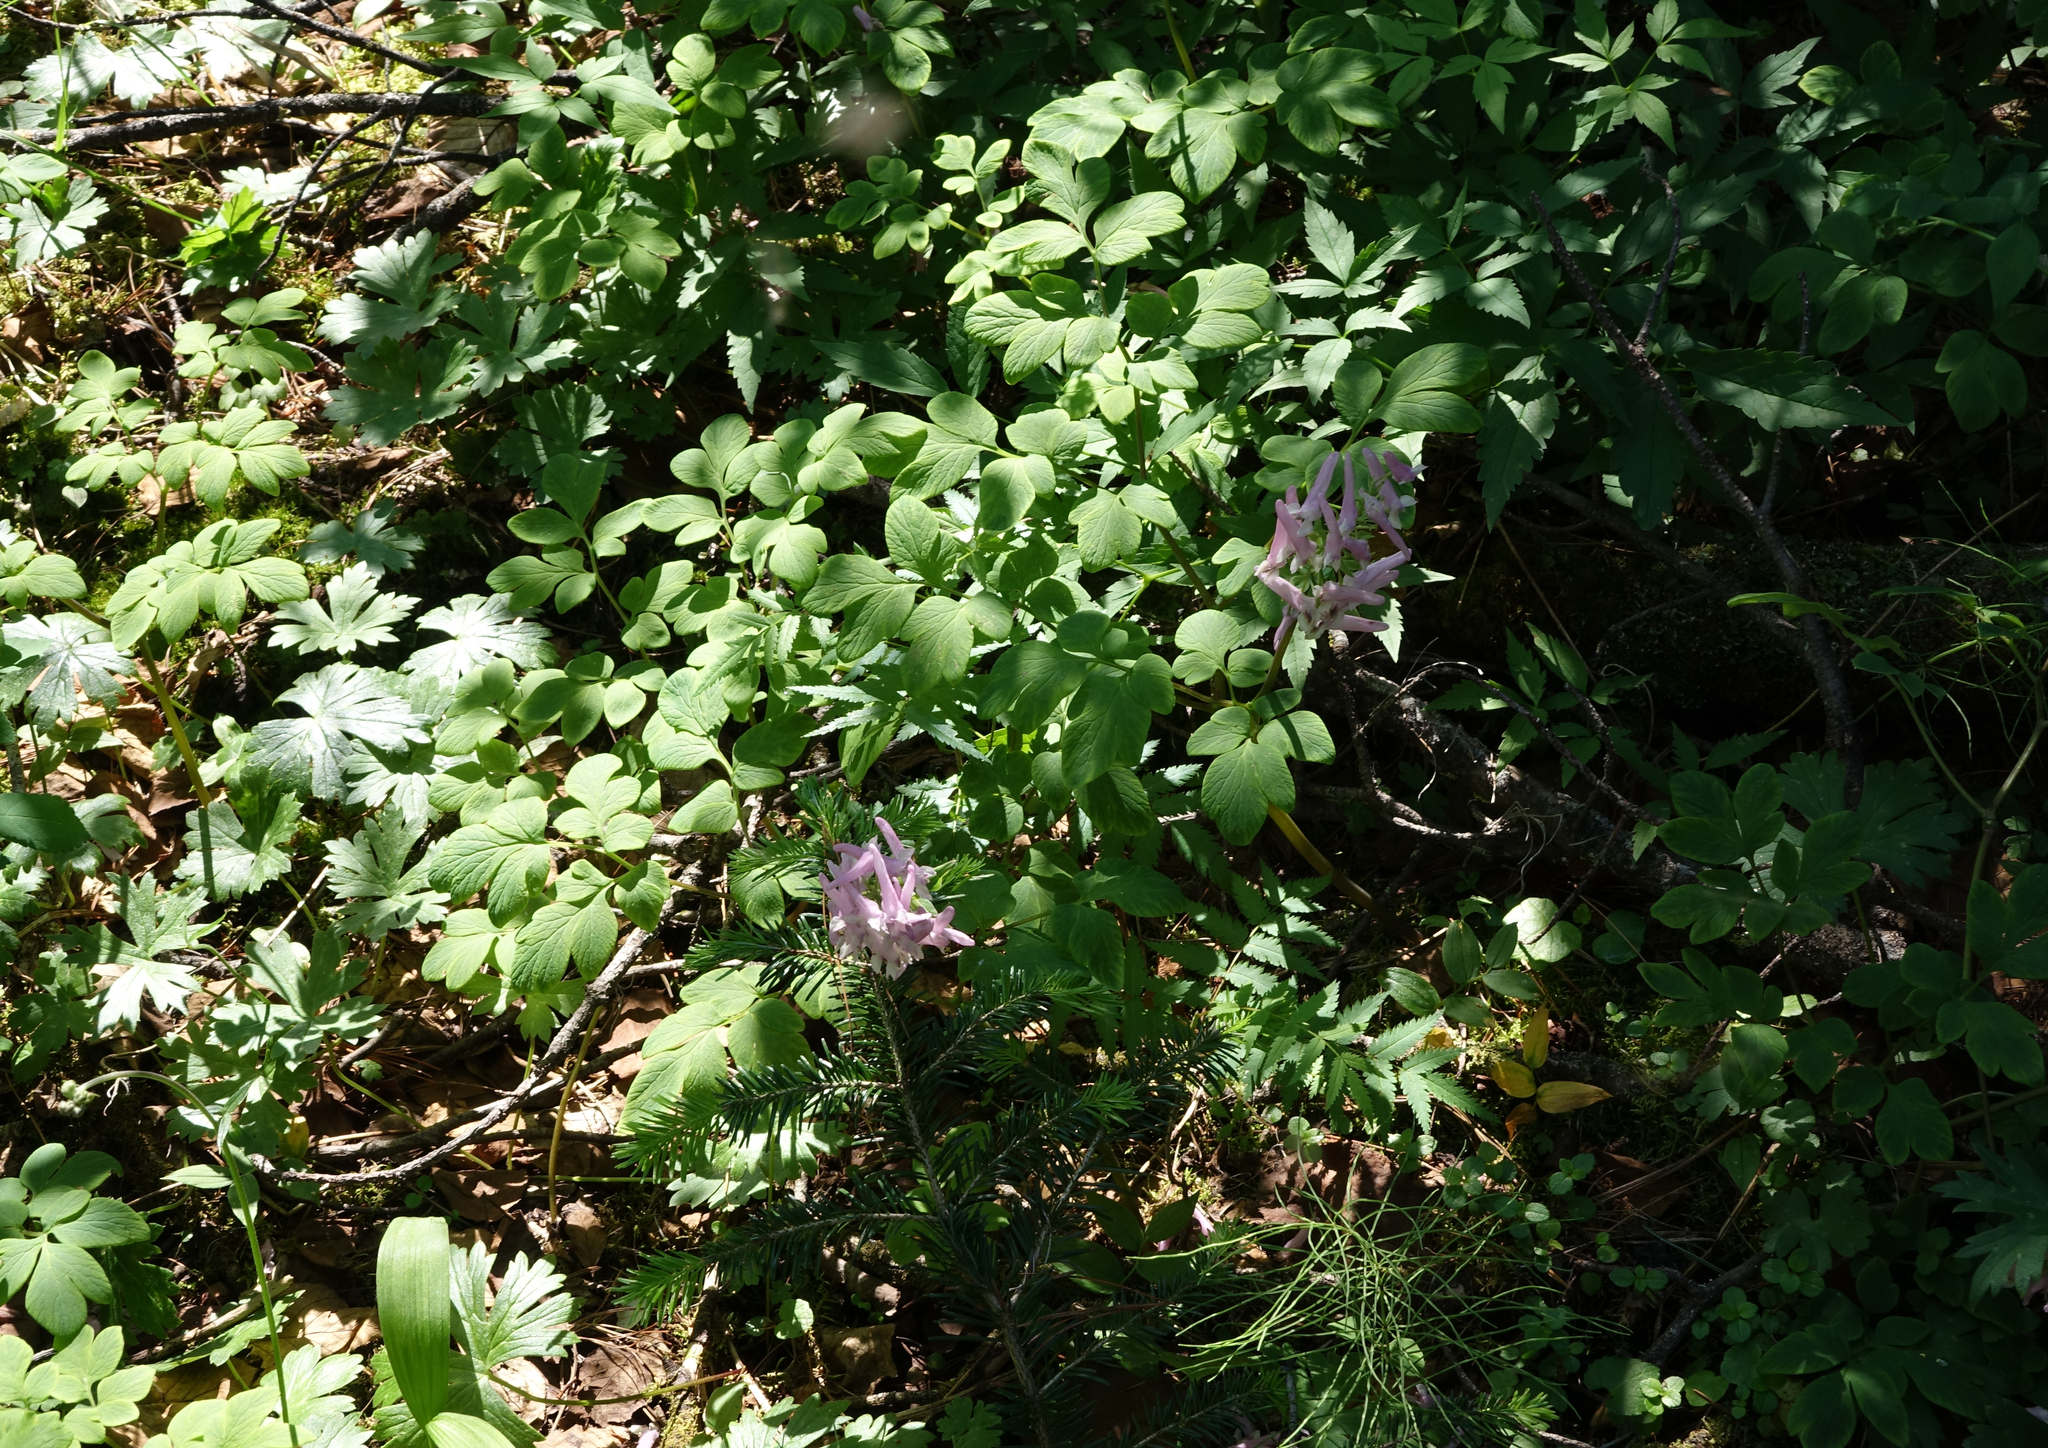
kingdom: Plantae
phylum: Tracheophyta
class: Magnoliopsida
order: Ranunculales
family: Papaveraceae
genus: Corydalis
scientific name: Corydalis paeoniifolia
